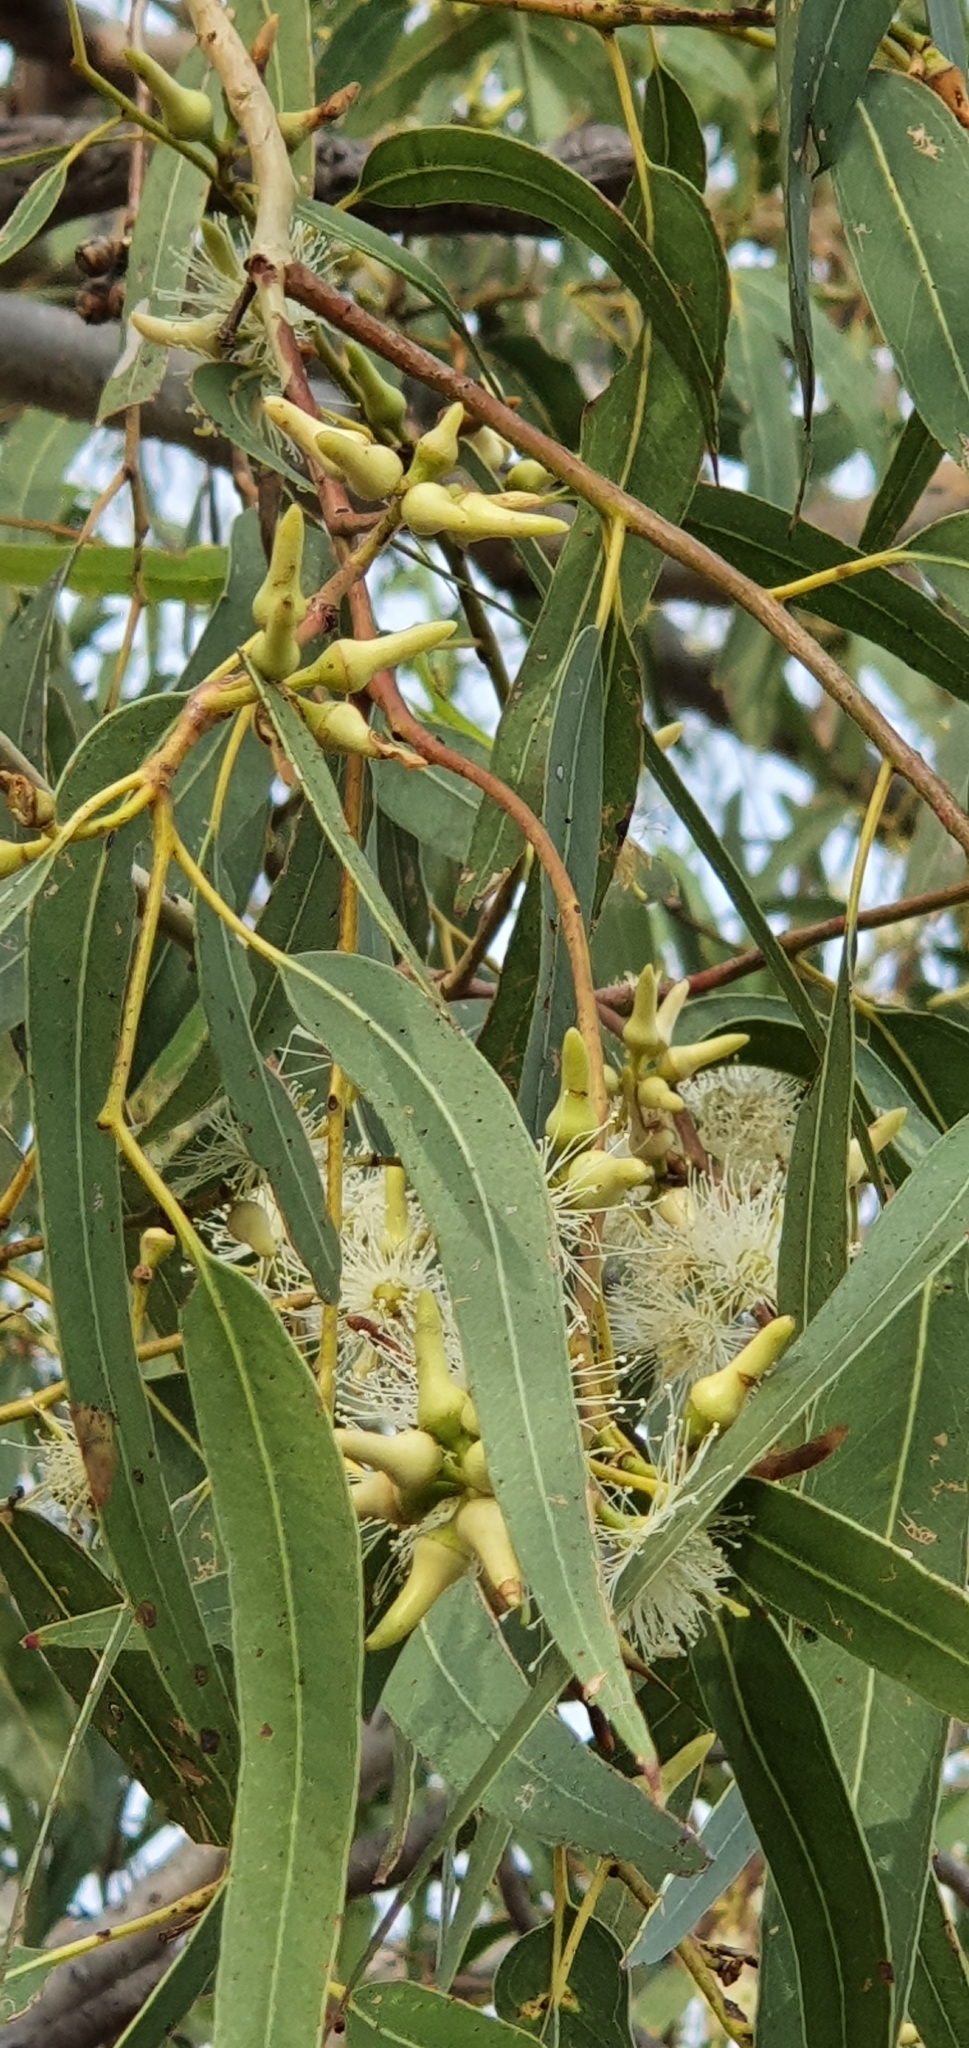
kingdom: Plantae
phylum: Tracheophyta
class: Magnoliopsida
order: Myrtales
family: Myrtaceae
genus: Eucalyptus
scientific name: Eucalyptus tereticornis
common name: Forest redgum
